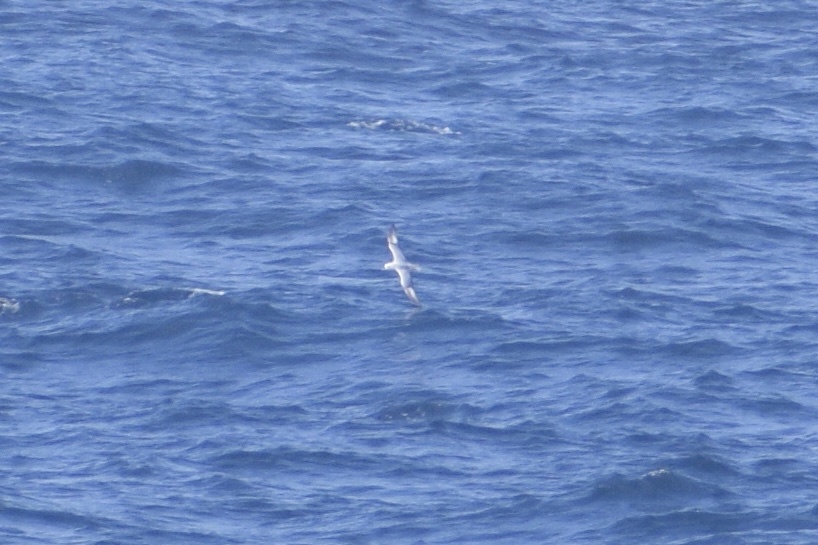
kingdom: Animalia
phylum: Chordata
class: Aves
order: Procellariiformes
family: Procellariidae
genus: Fulmarus
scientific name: Fulmarus glacialoides
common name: Southern fulmar
